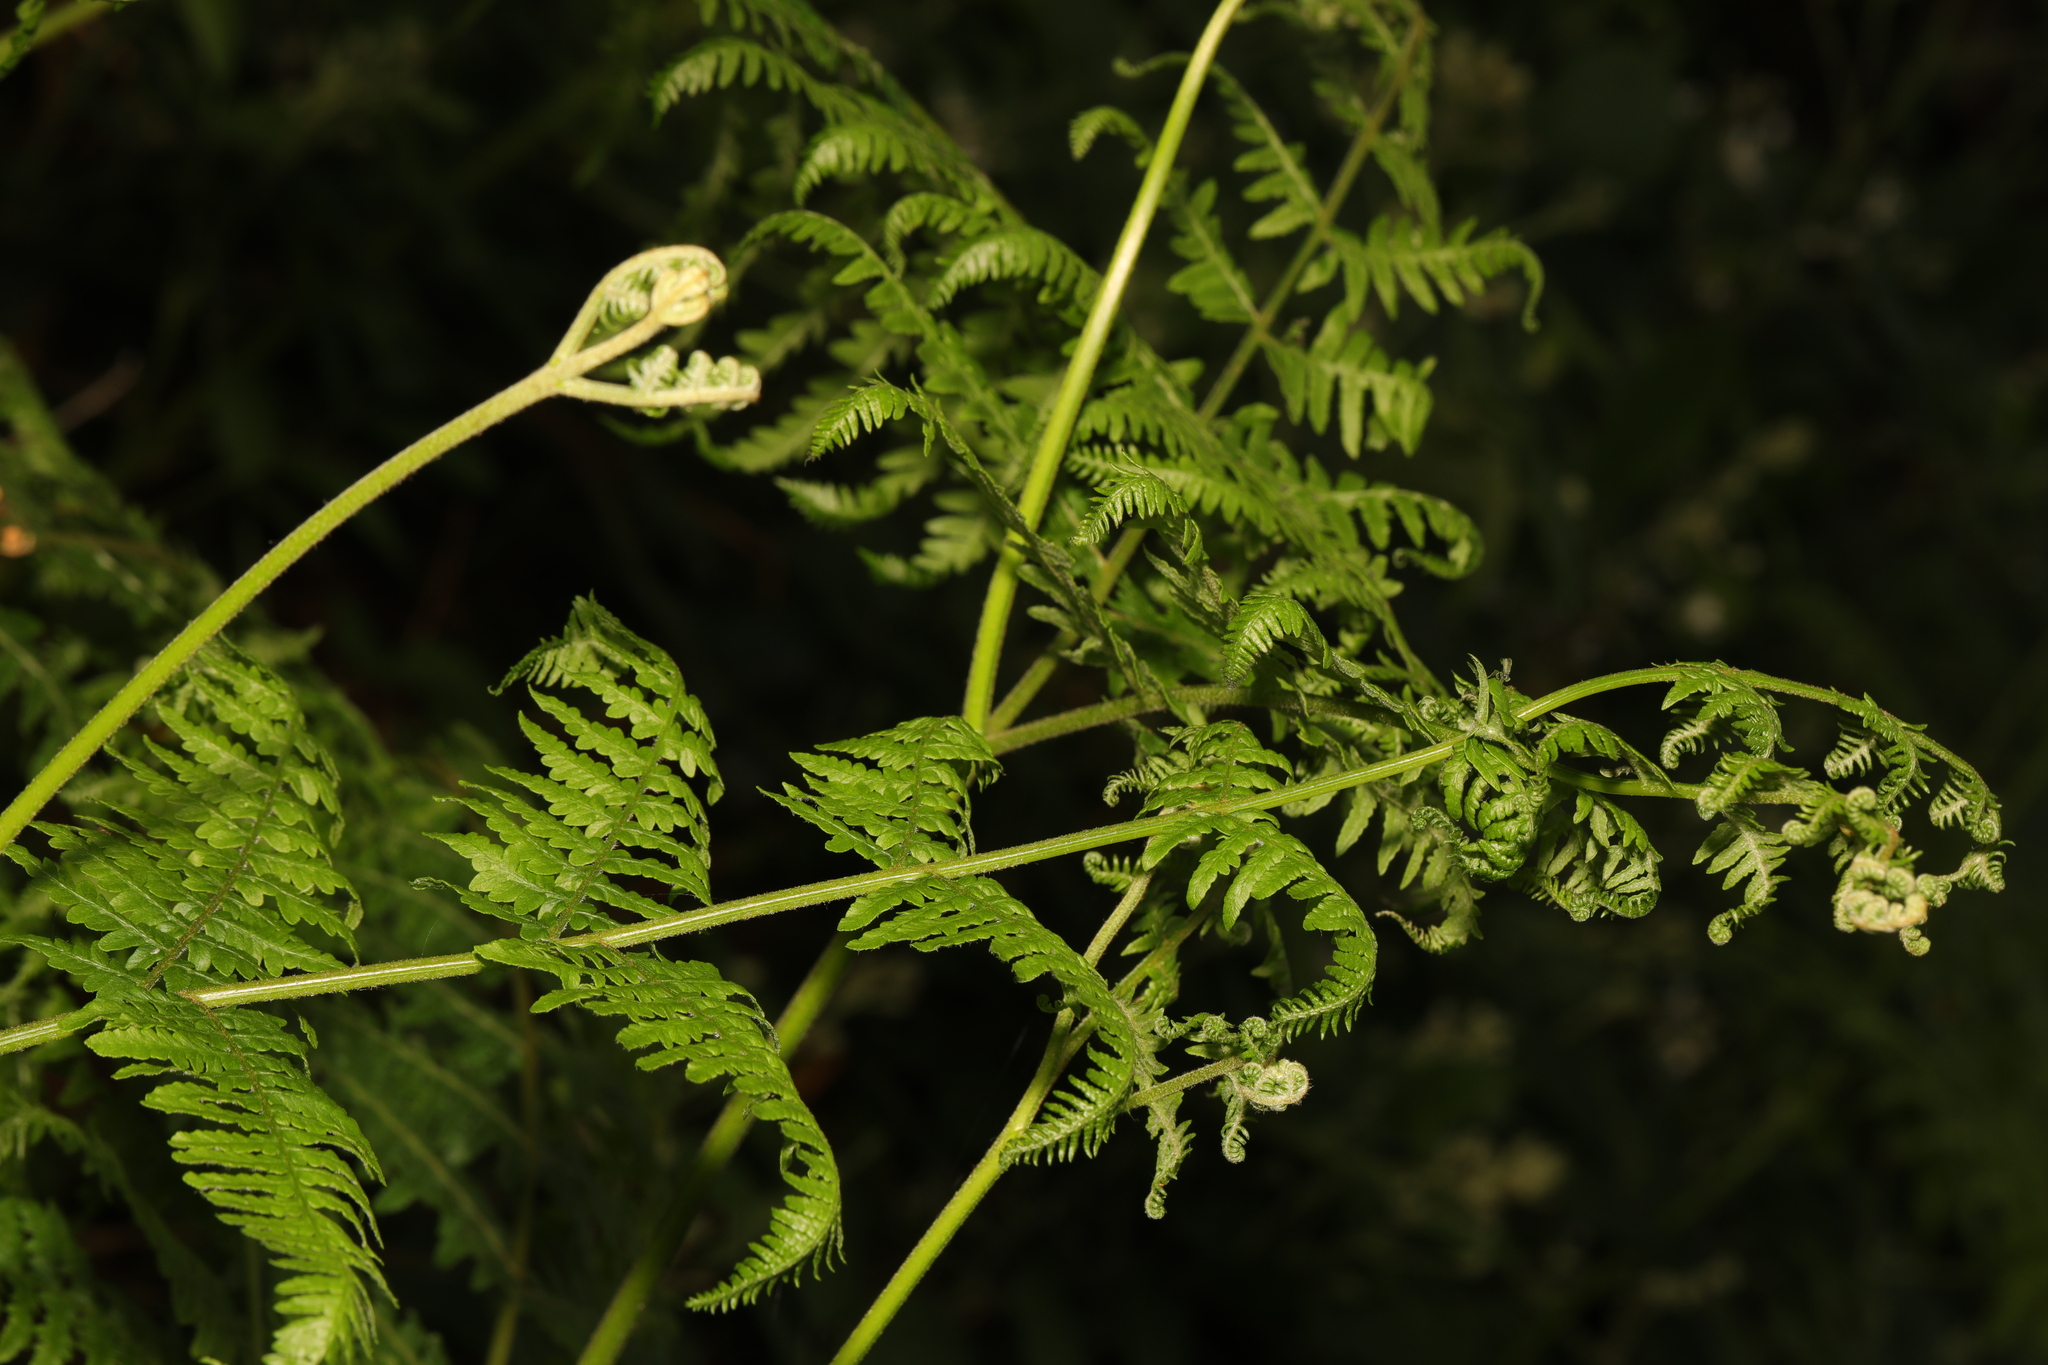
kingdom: Plantae
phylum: Tracheophyta
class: Polypodiopsida
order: Polypodiales
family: Dennstaedtiaceae
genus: Pteridium
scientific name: Pteridium aquilinum
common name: Bracken
